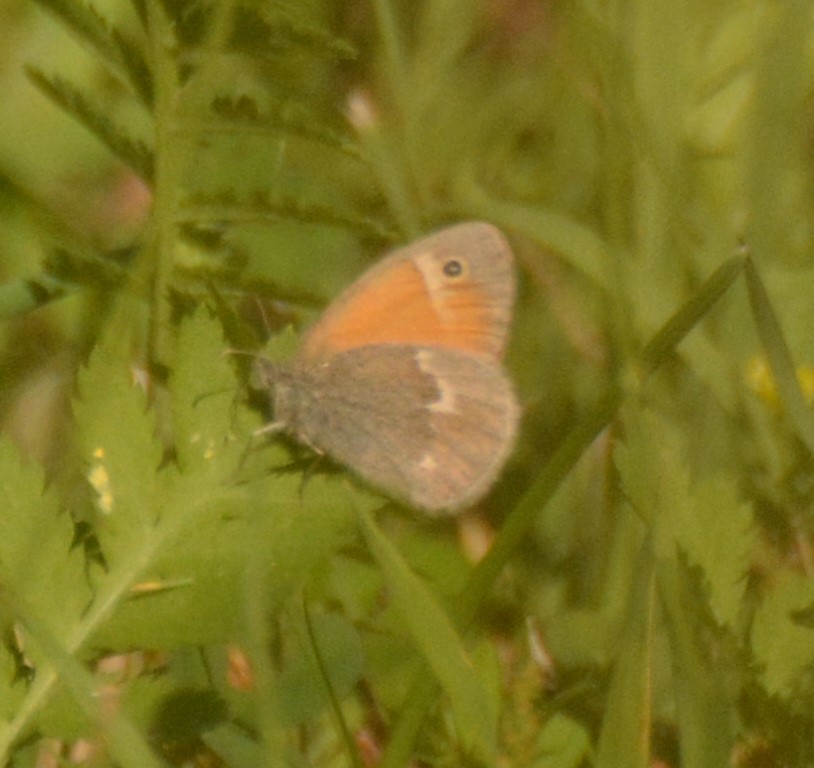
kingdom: Animalia
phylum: Arthropoda
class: Insecta
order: Lepidoptera
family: Nymphalidae
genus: Coenonympha
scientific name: Coenonympha california
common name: Common ringlet
